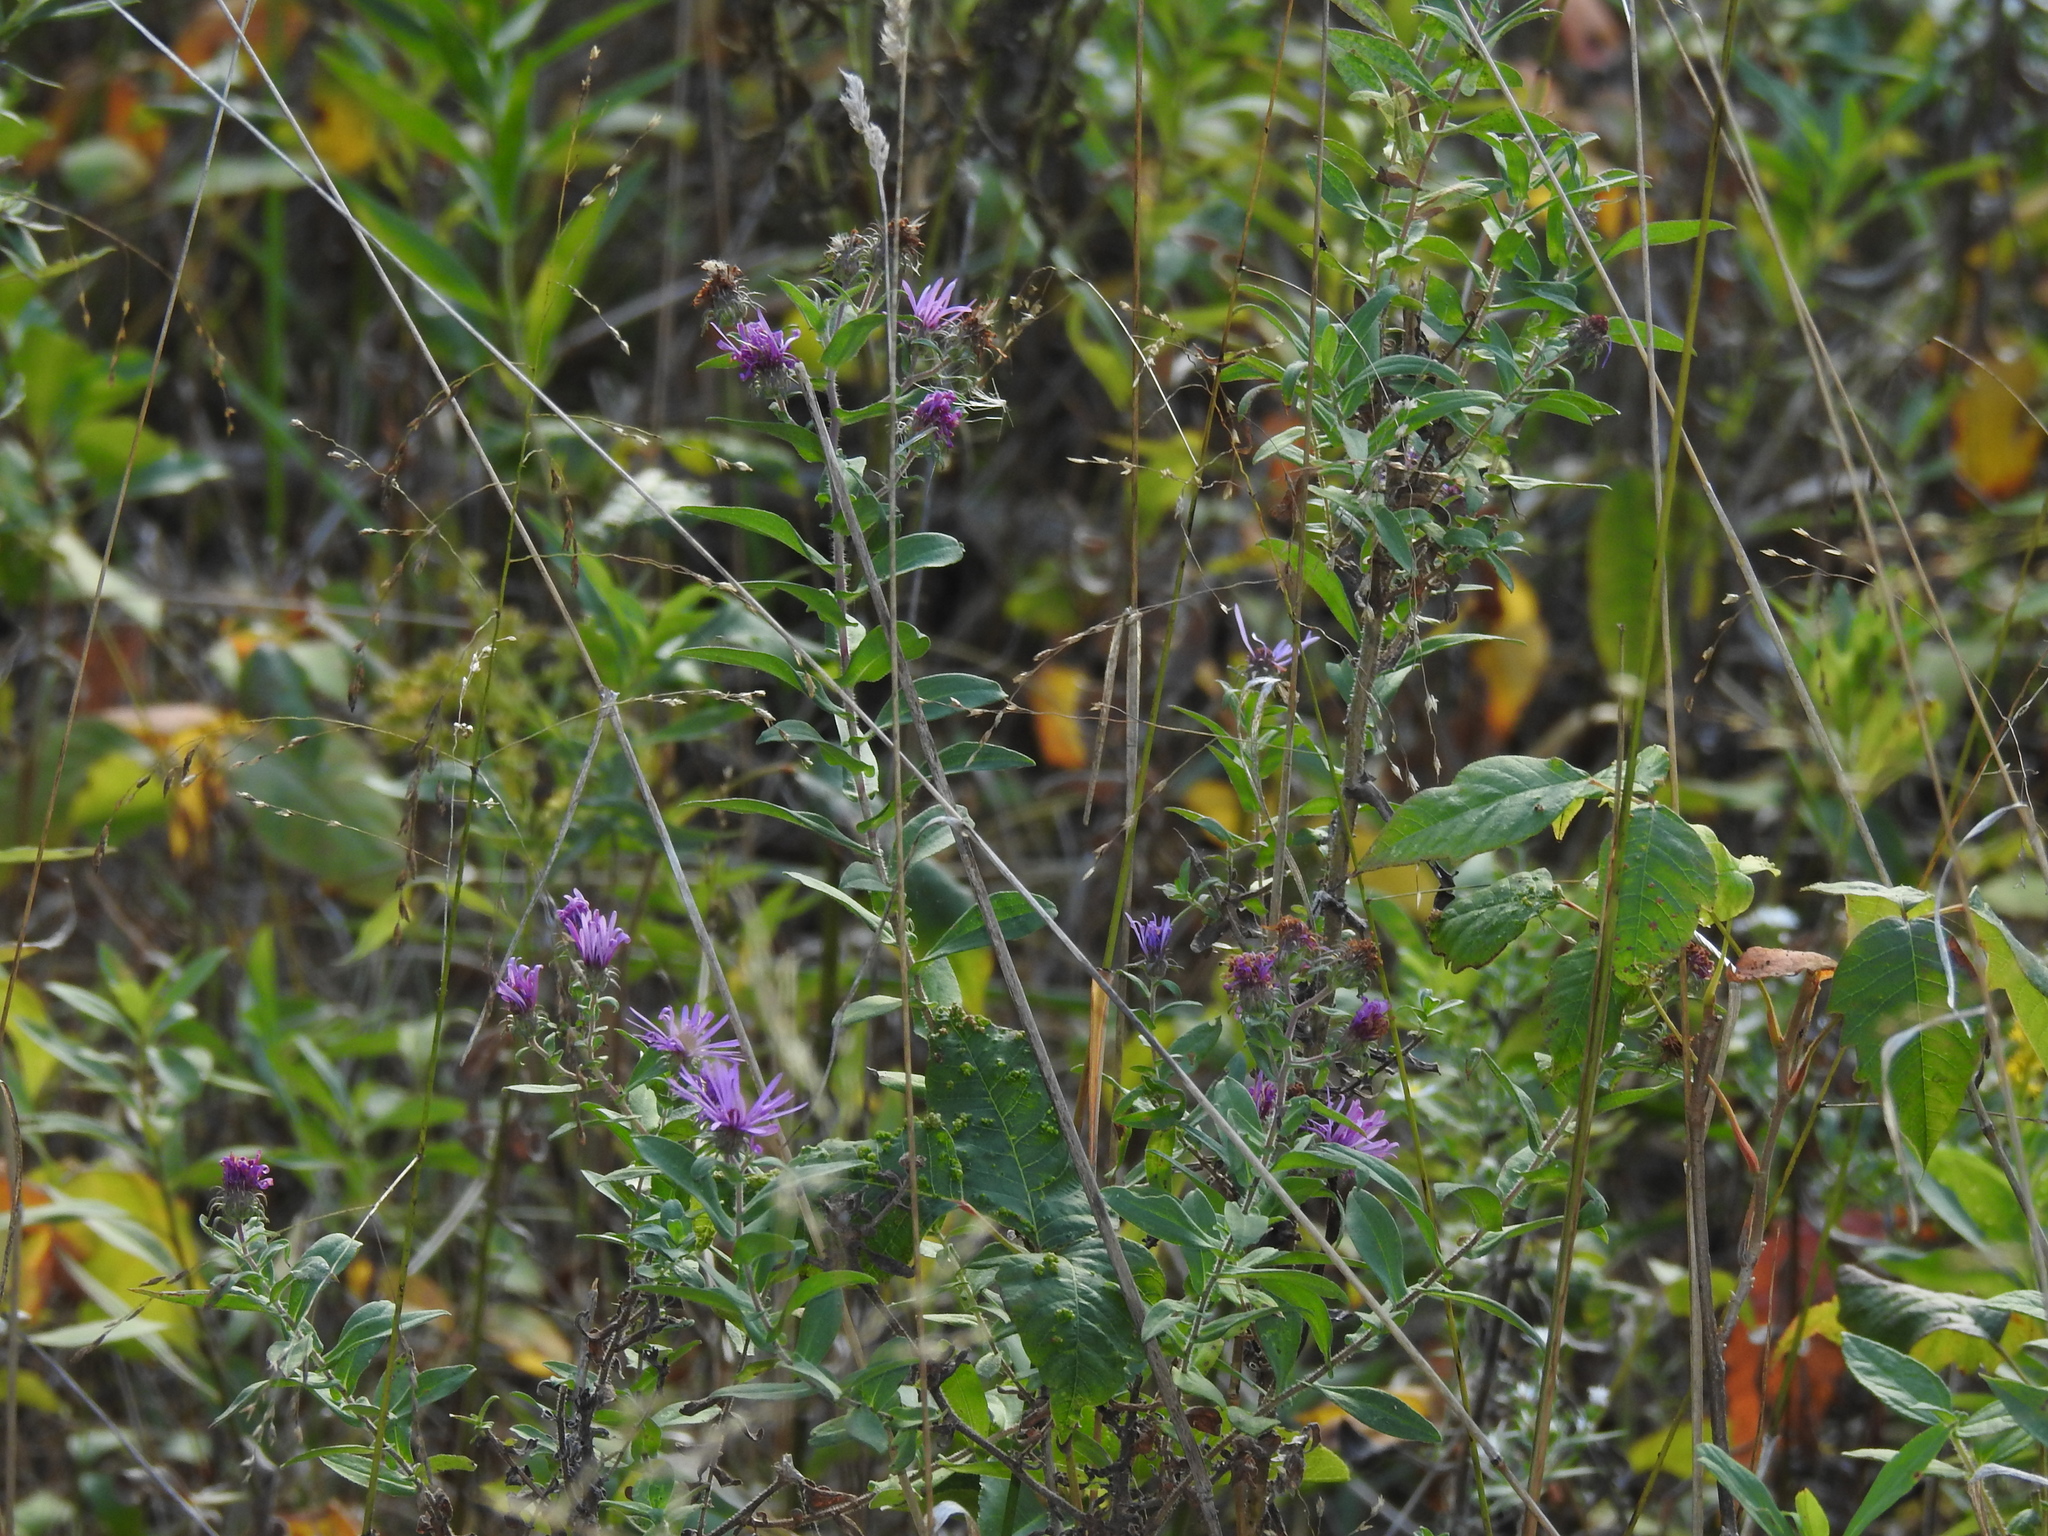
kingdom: Plantae
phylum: Tracheophyta
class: Magnoliopsida
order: Asterales
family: Asteraceae
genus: Symphyotrichum
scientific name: Symphyotrichum novae-angliae
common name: Michaelmas daisy
